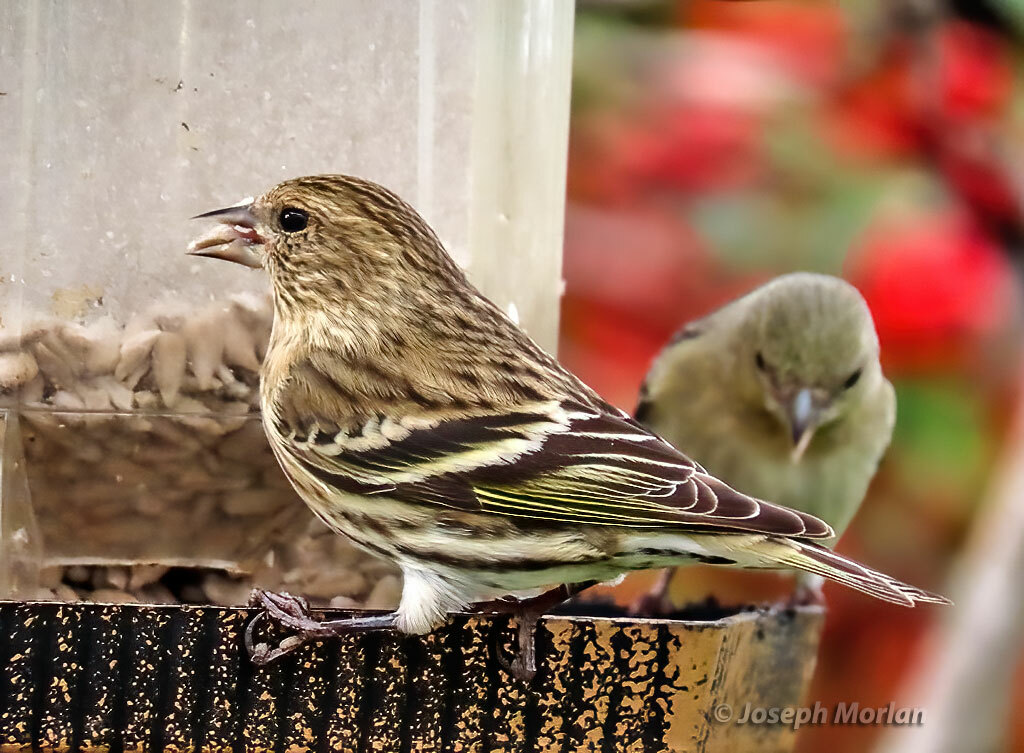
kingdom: Animalia
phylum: Chordata
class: Aves
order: Passeriformes
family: Fringillidae
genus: Spinus
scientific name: Spinus pinus
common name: Pine siskin
